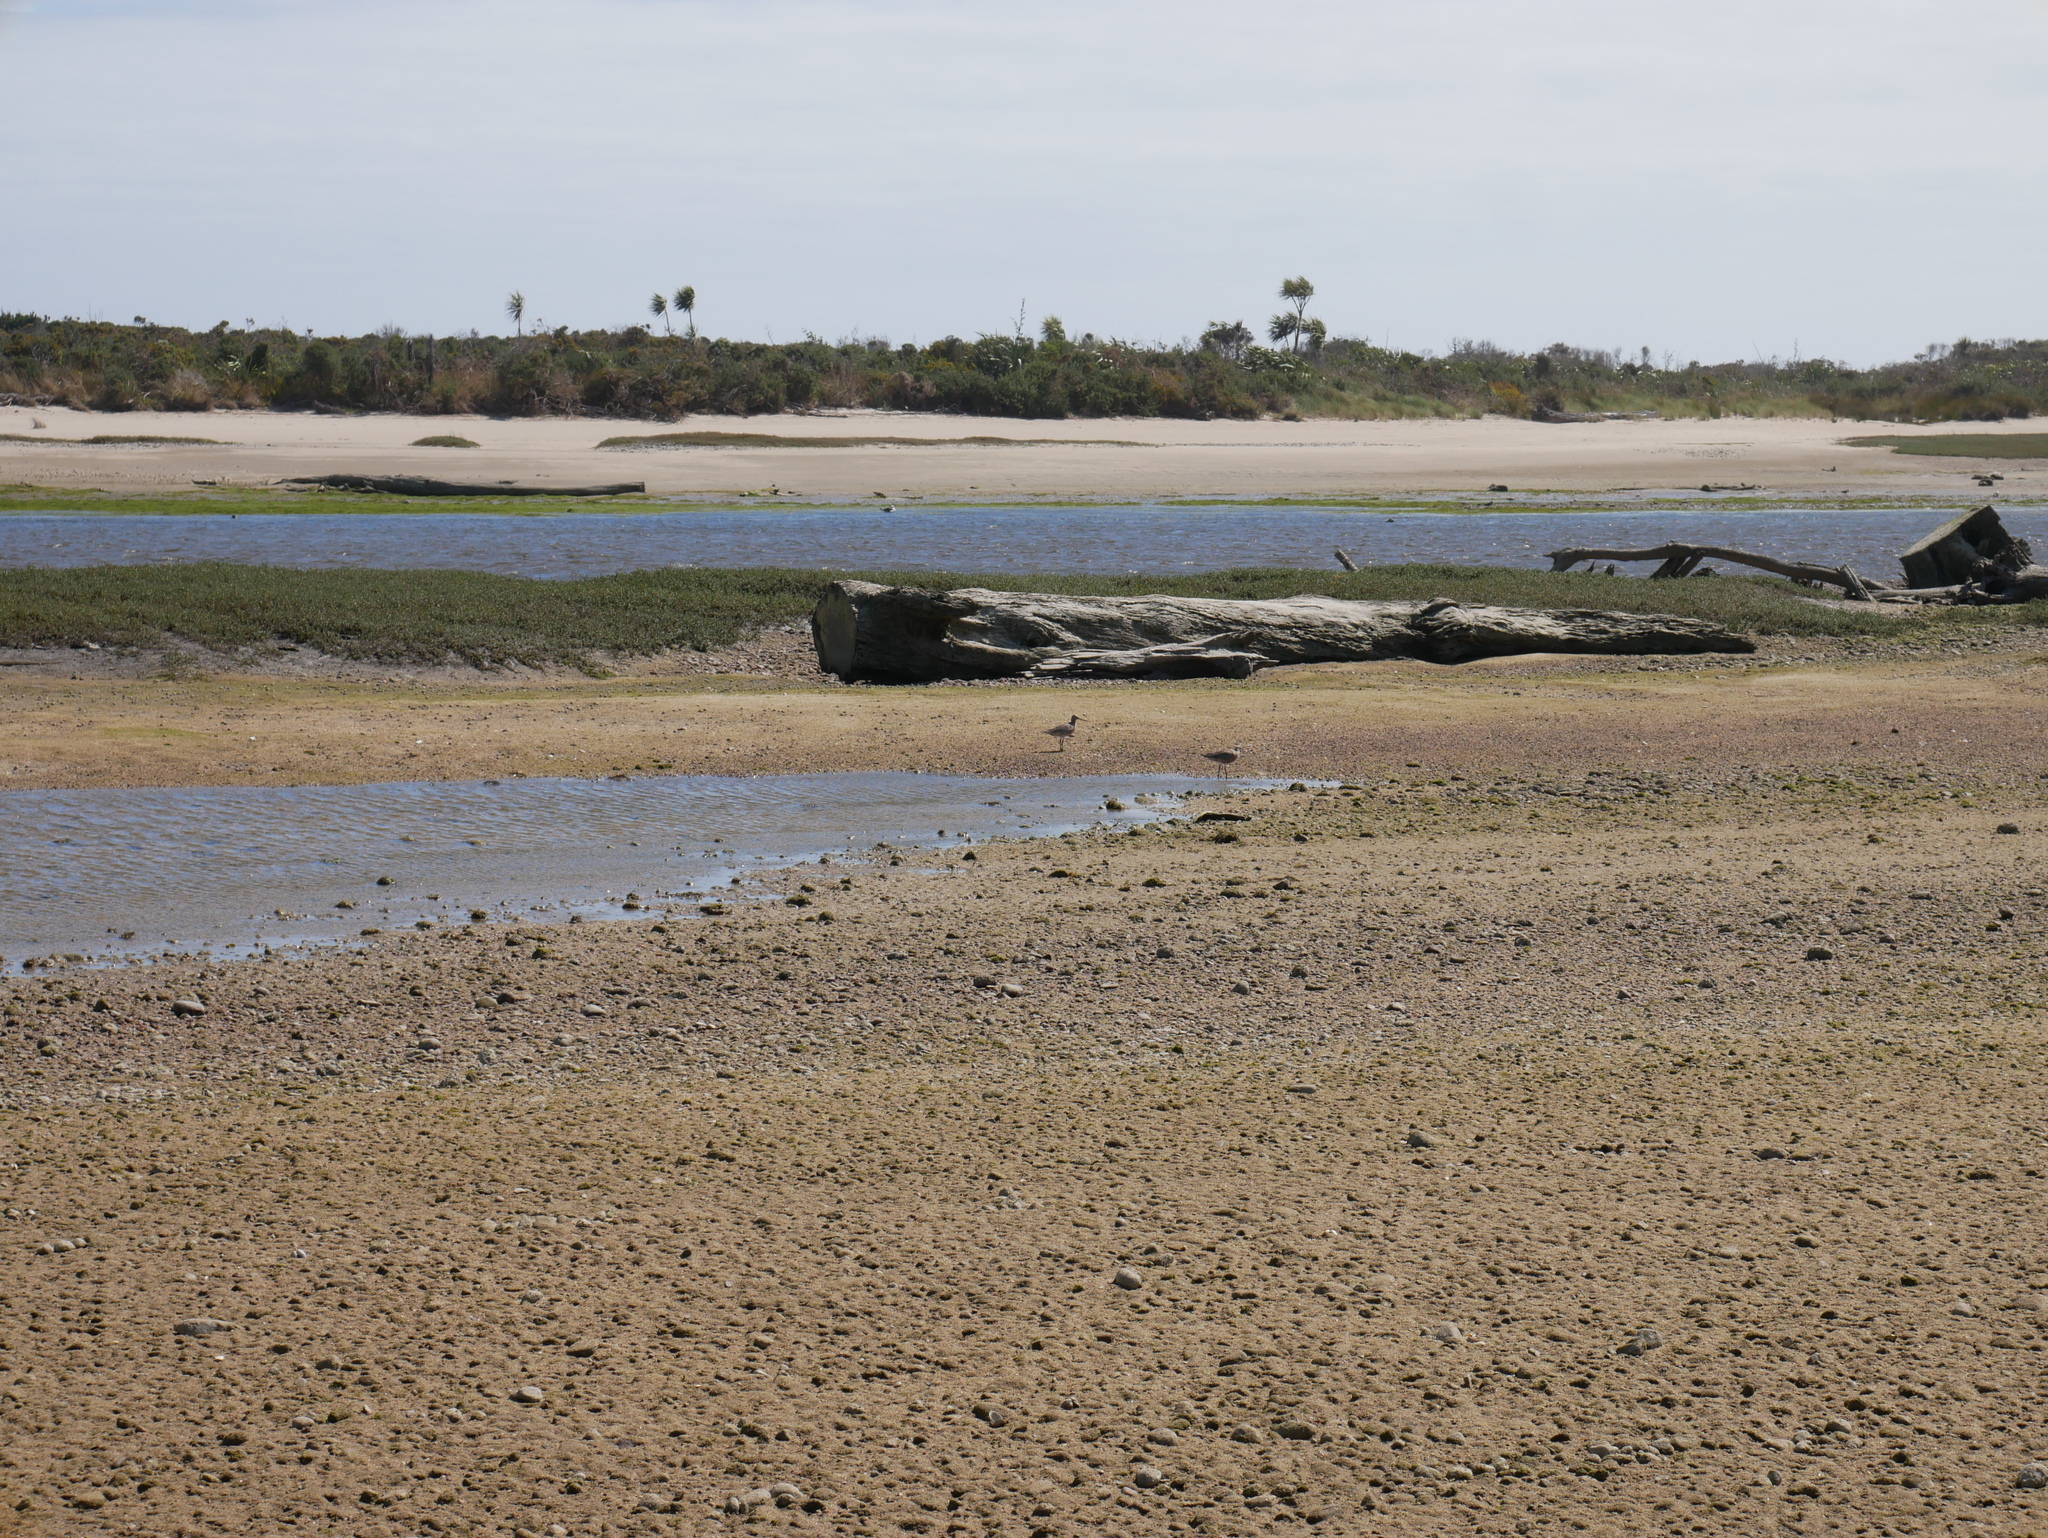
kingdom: Animalia
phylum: Chordata
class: Aves
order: Charadriiformes
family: Scolopacidae
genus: Limosa
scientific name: Limosa lapponica
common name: Bar-tailed godwit
